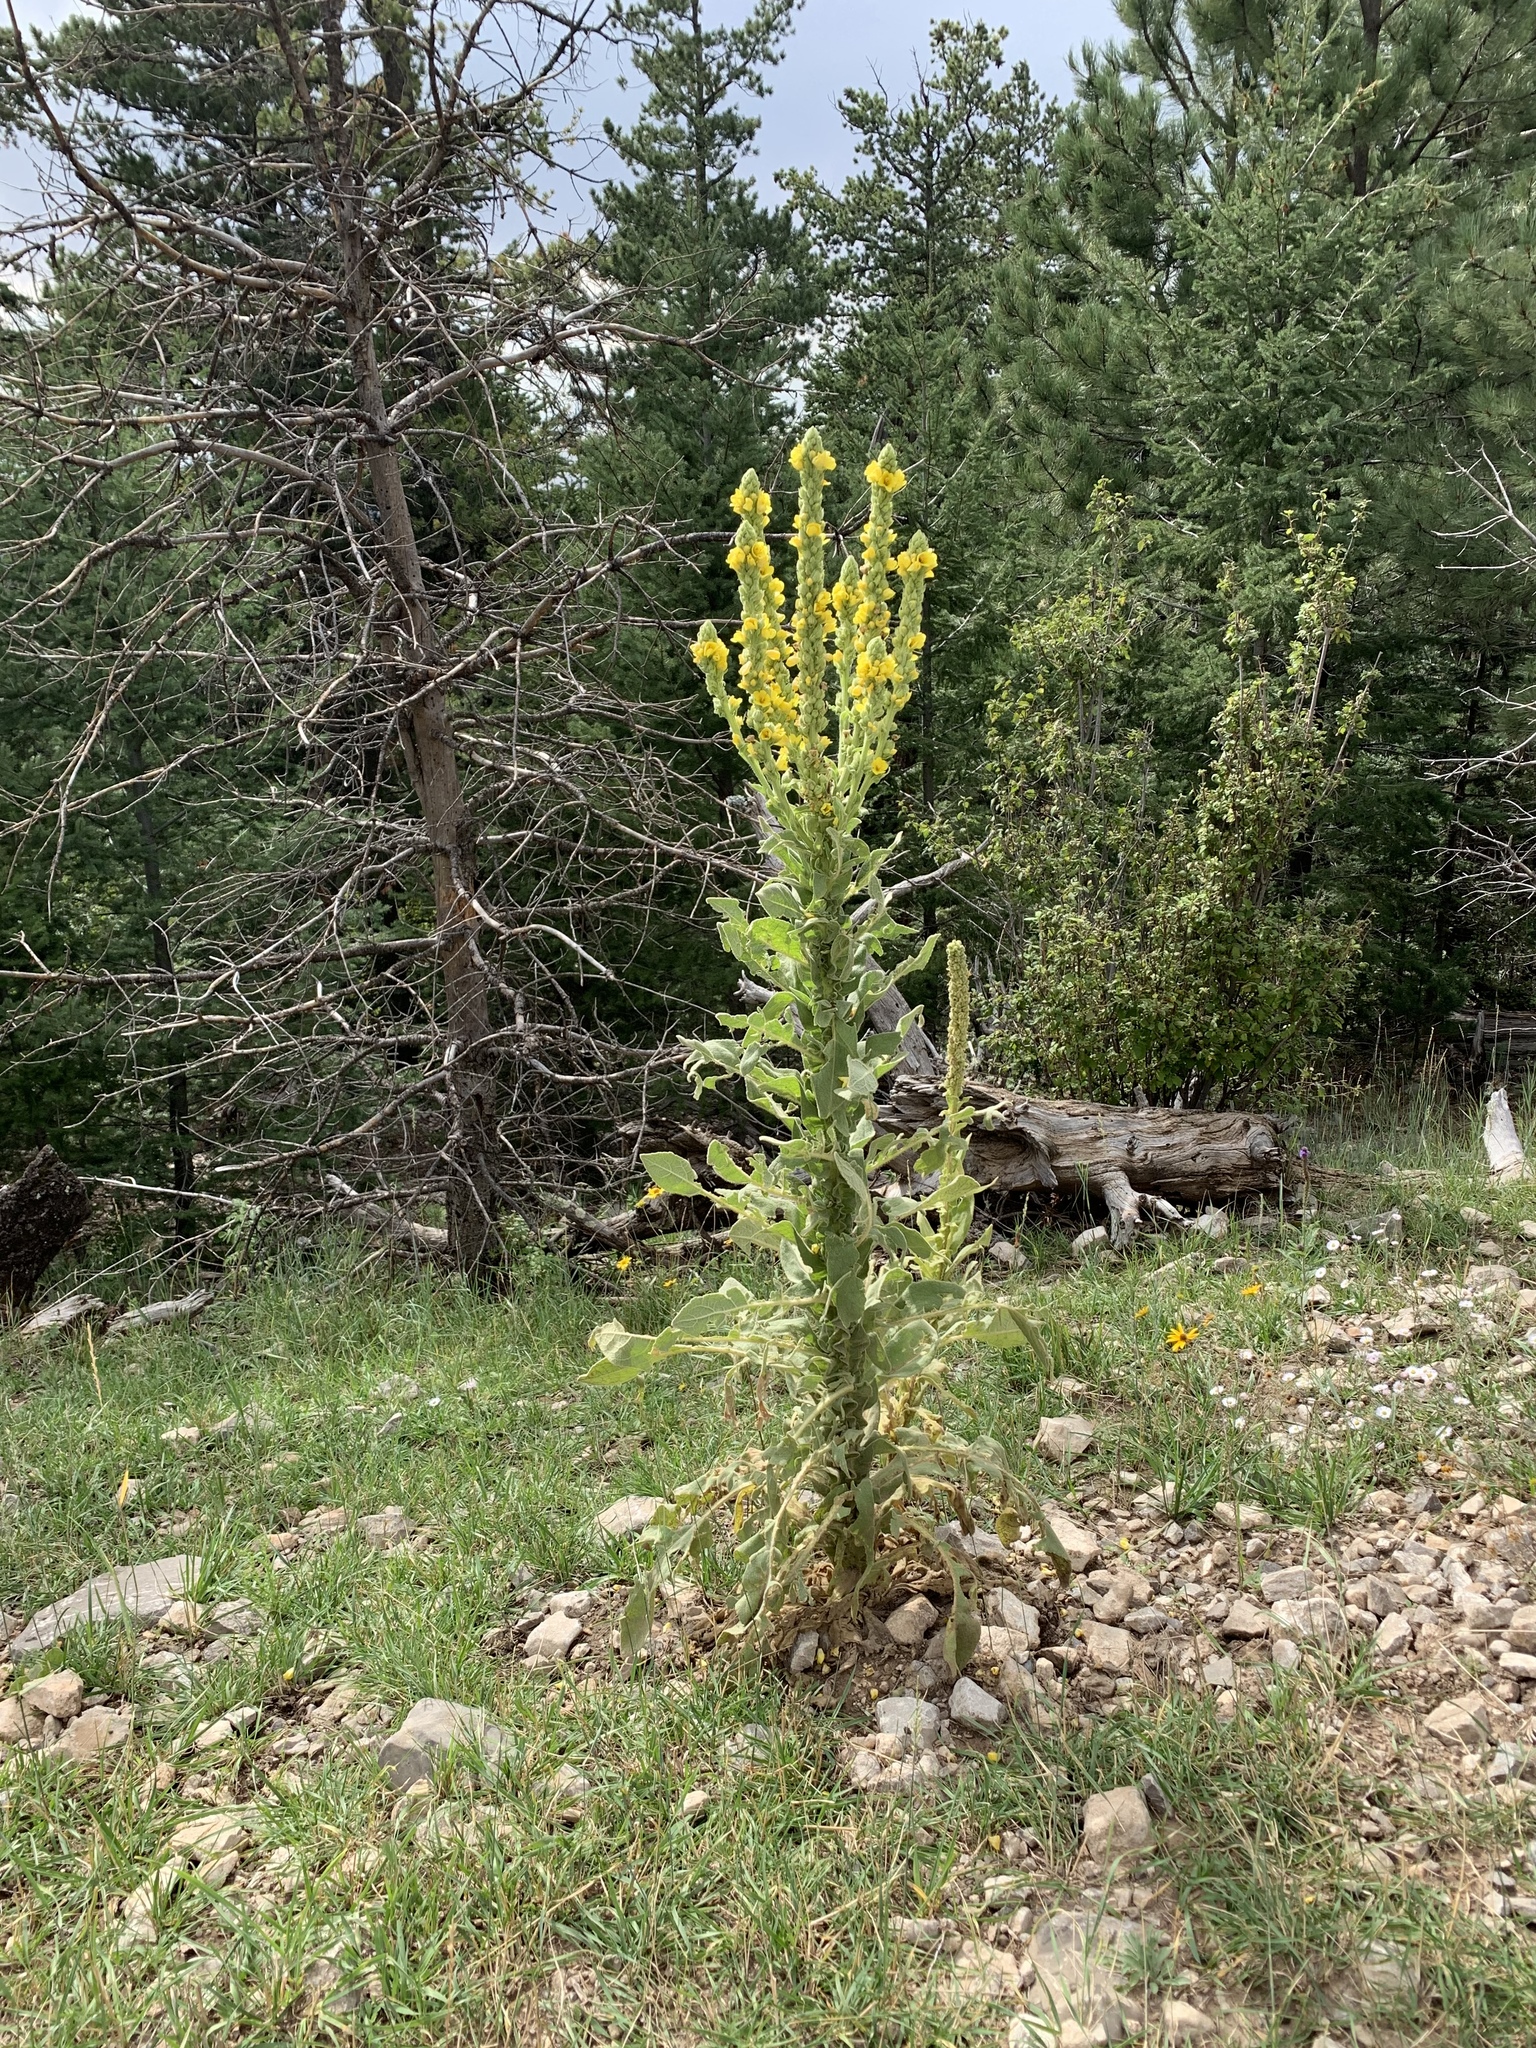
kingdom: Plantae
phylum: Tracheophyta
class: Magnoliopsida
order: Lamiales
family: Scrophulariaceae
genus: Verbascum
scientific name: Verbascum thapsus
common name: Common mullein
